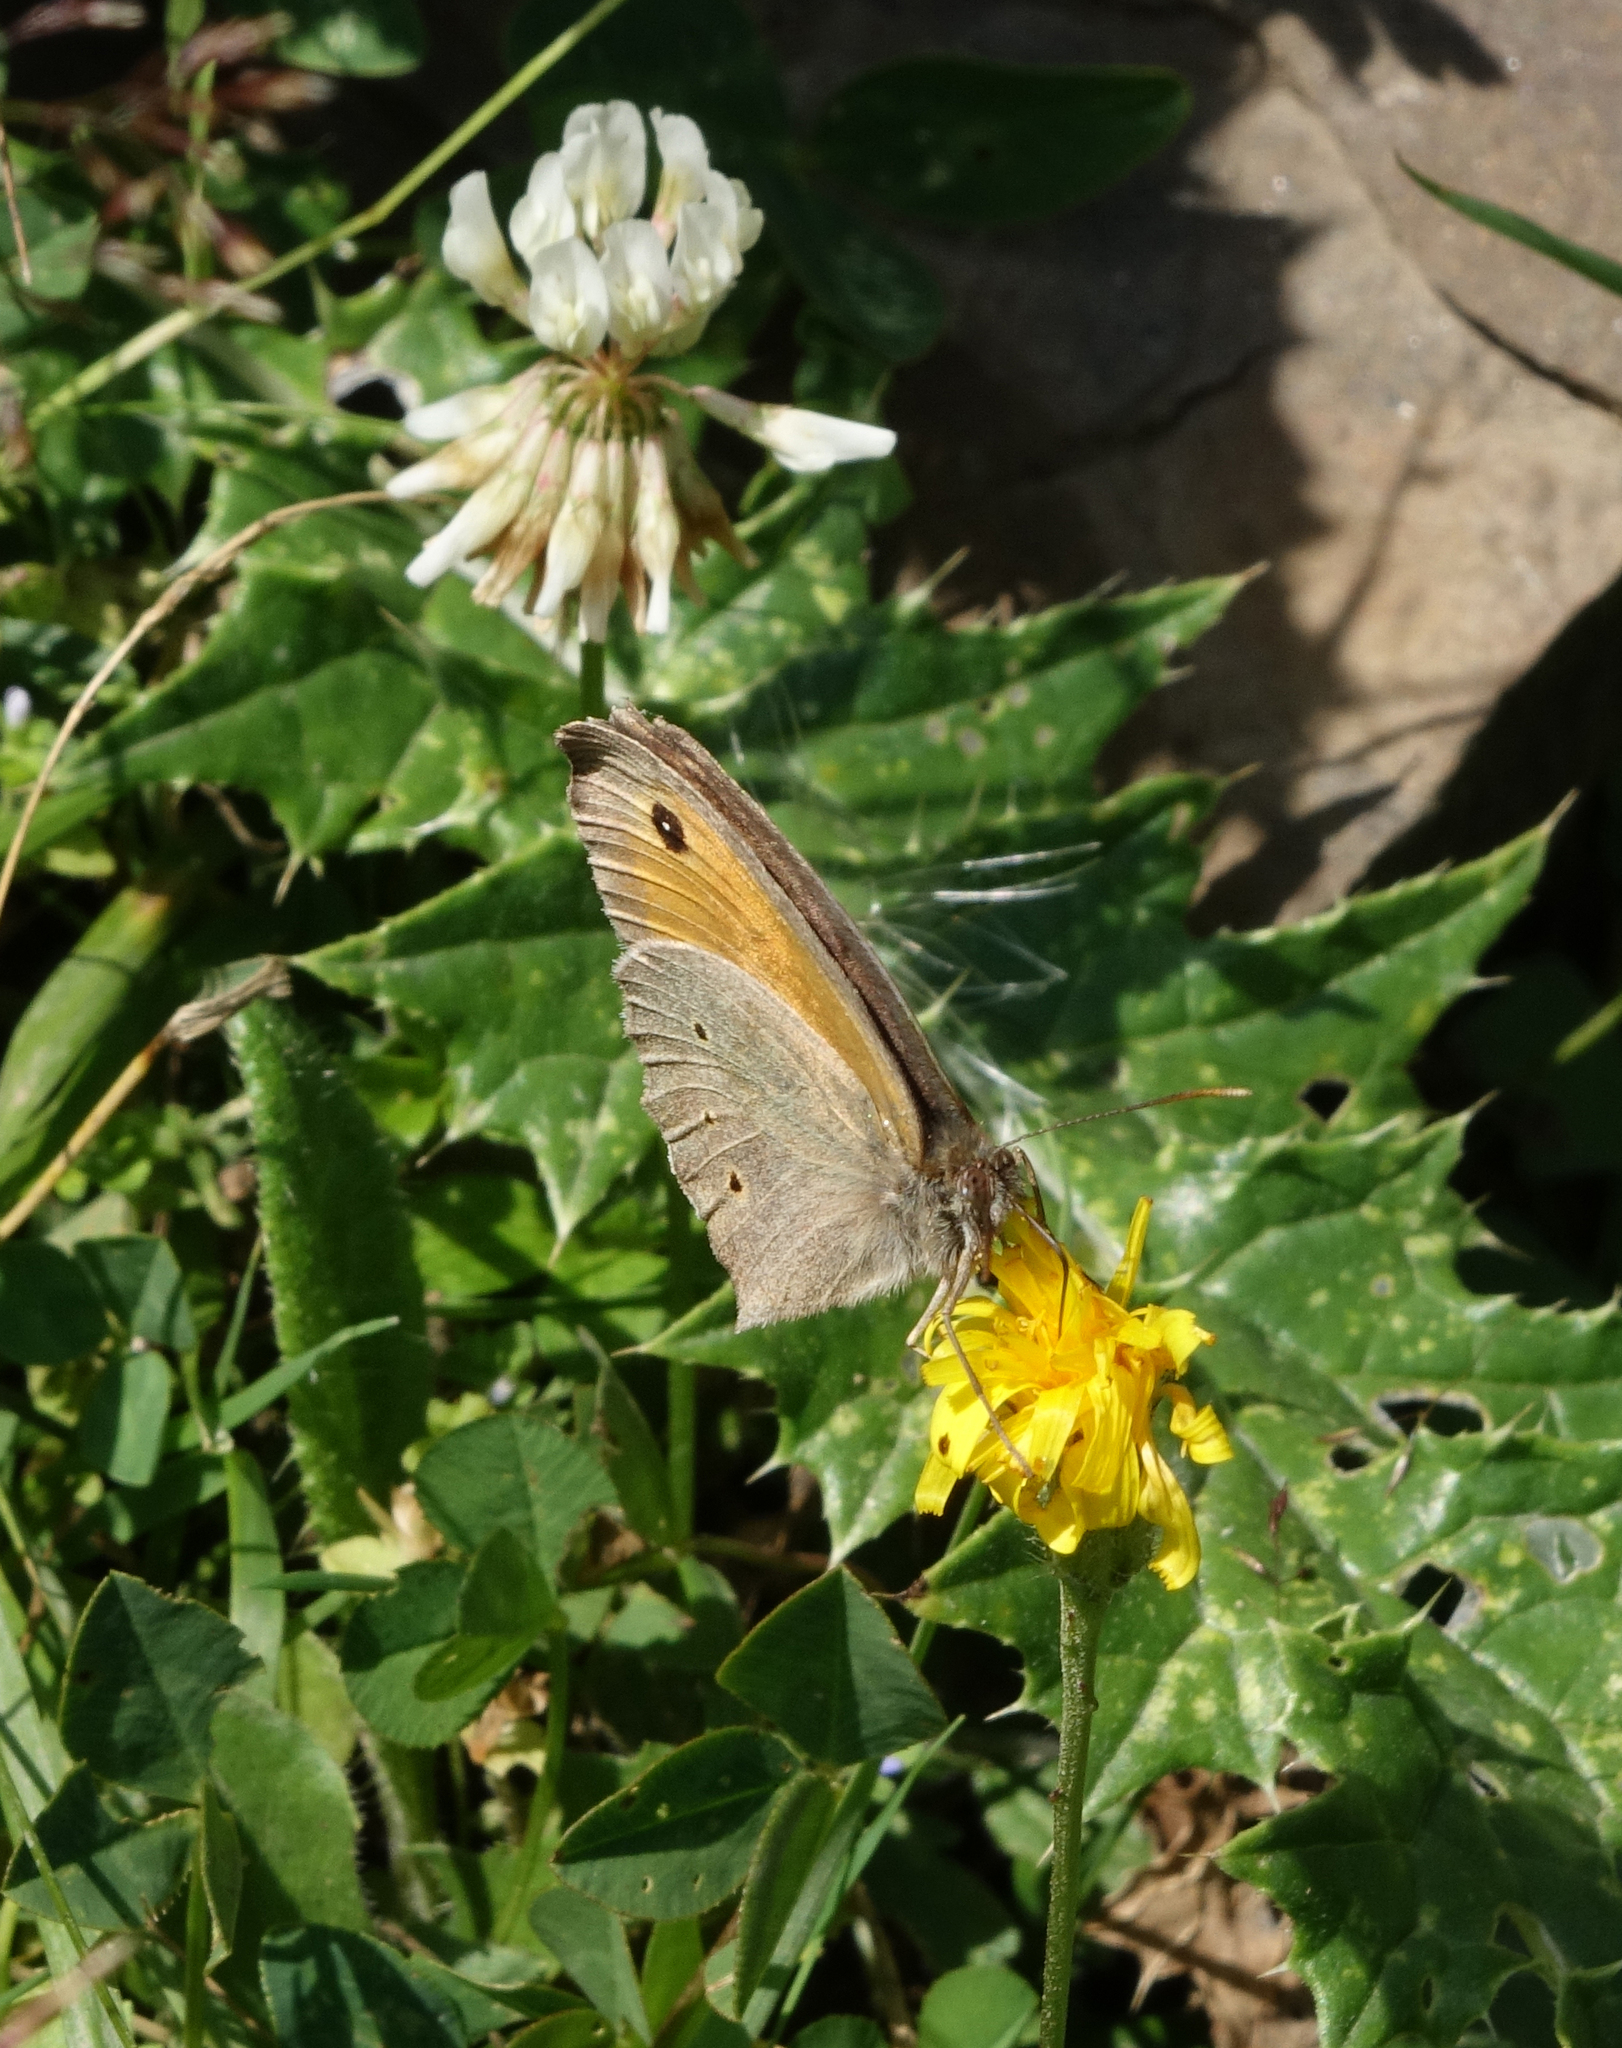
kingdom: Animalia
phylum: Arthropoda
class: Insecta
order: Lepidoptera
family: Nymphalidae
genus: Maniola
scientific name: Maniola jurtina
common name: Meadow brown
